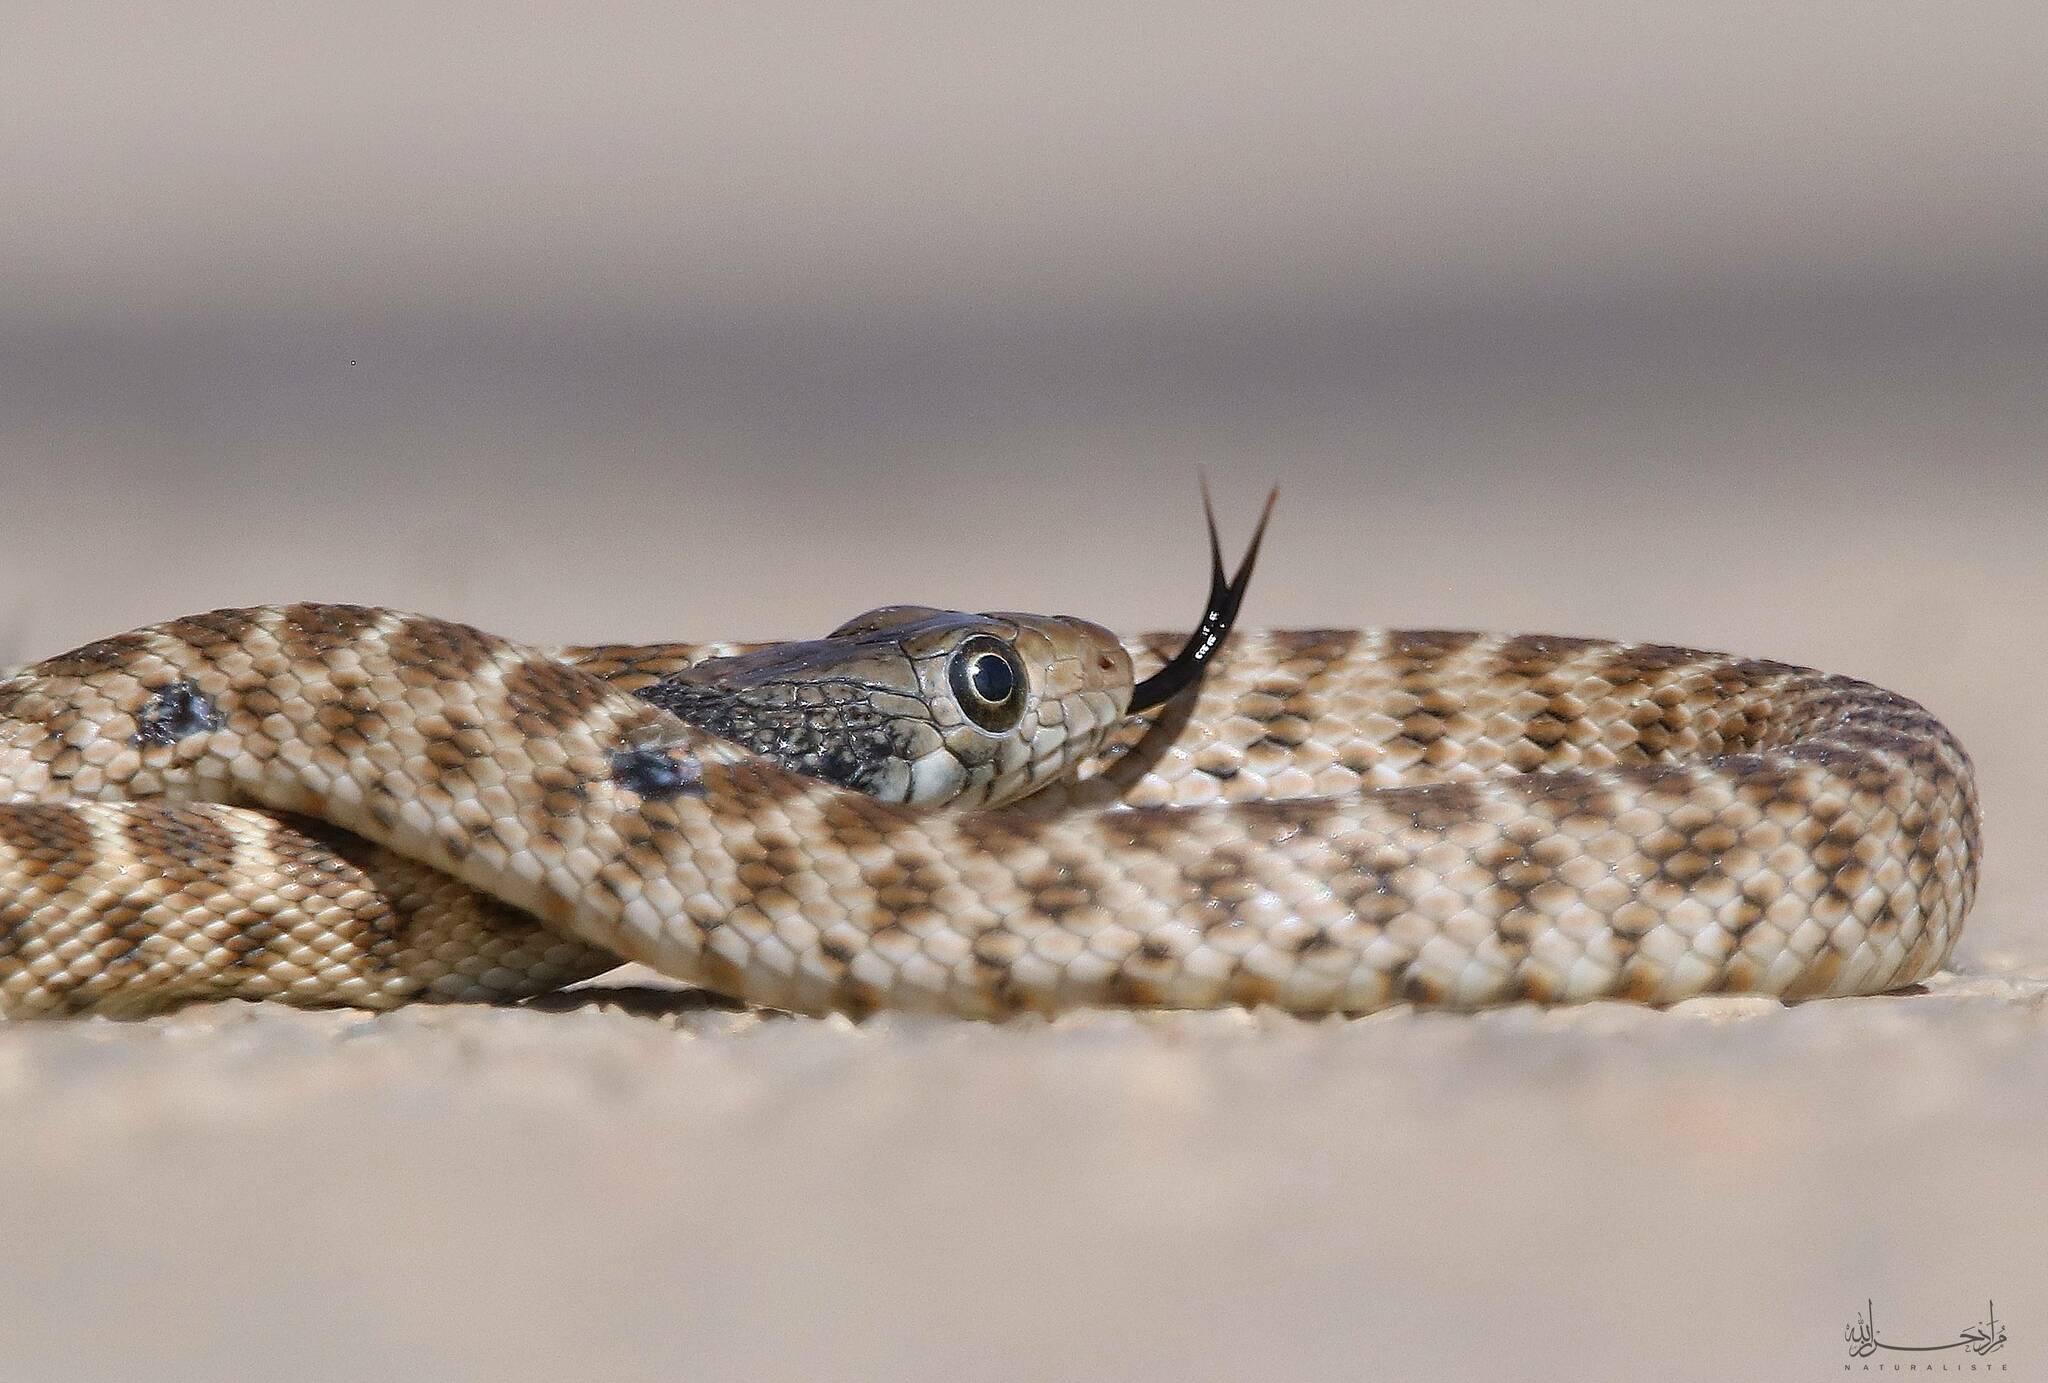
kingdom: Animalia
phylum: Chordata
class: Squamata
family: Colubridae
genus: Hemorrhois
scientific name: Hemorrhois algirus
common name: Algerian whip snake
